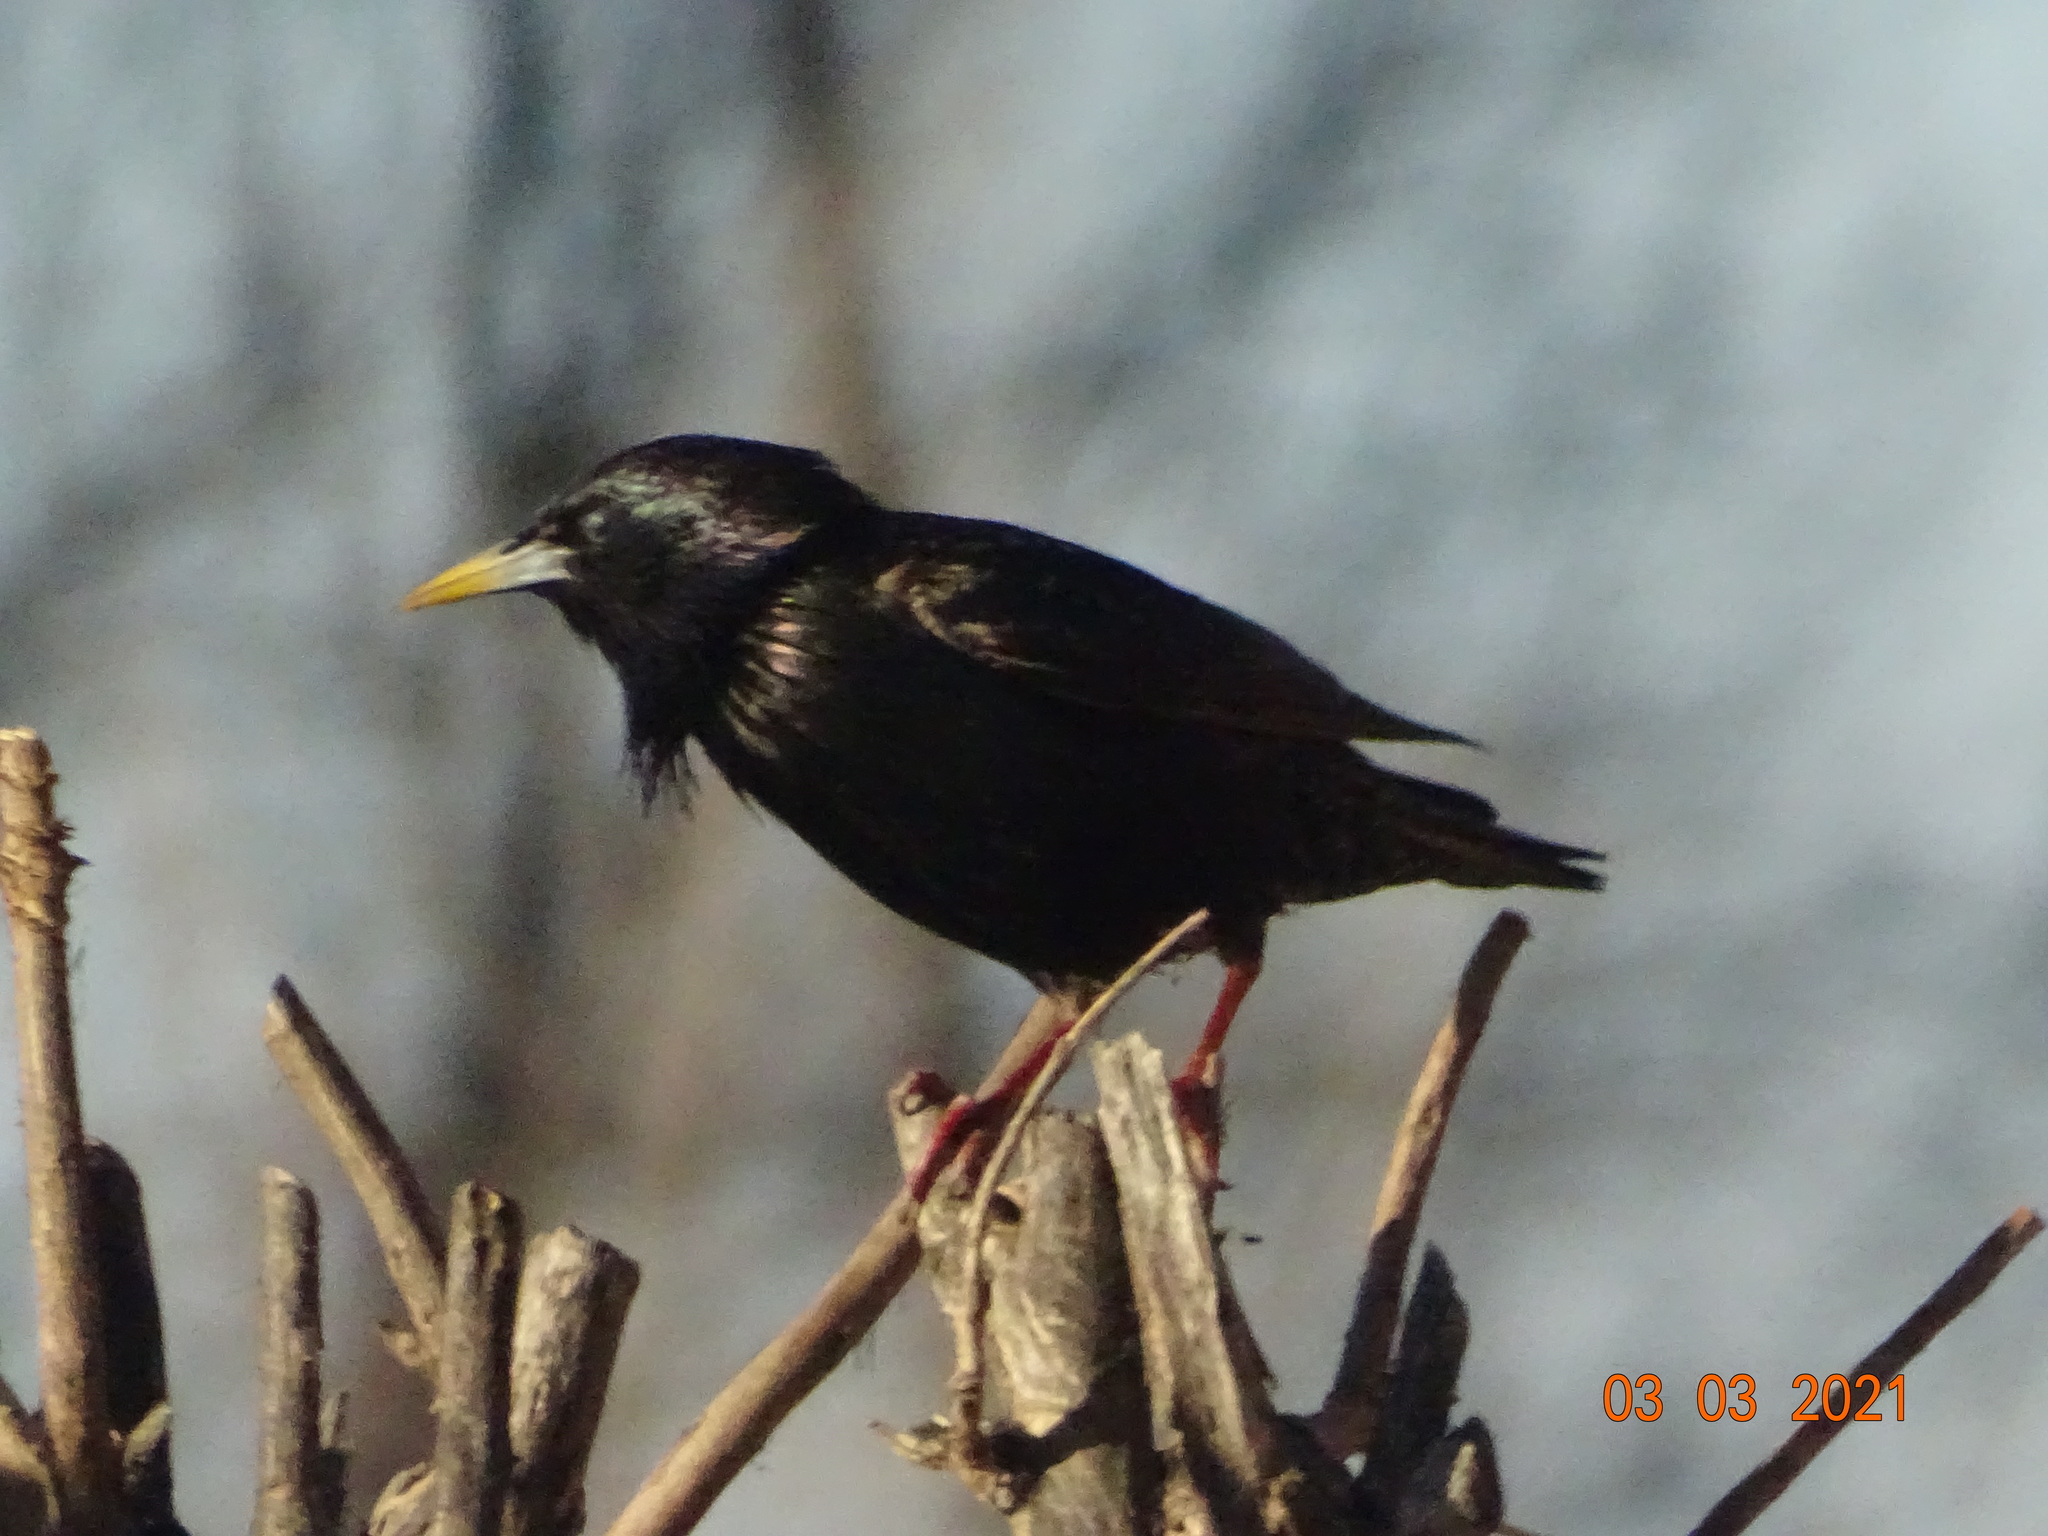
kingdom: Animalia
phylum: Chordata
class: Aves
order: Passeriformes
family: Sturnidae
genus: Sturnus
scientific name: Sturnus vulgaris
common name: Common starling
